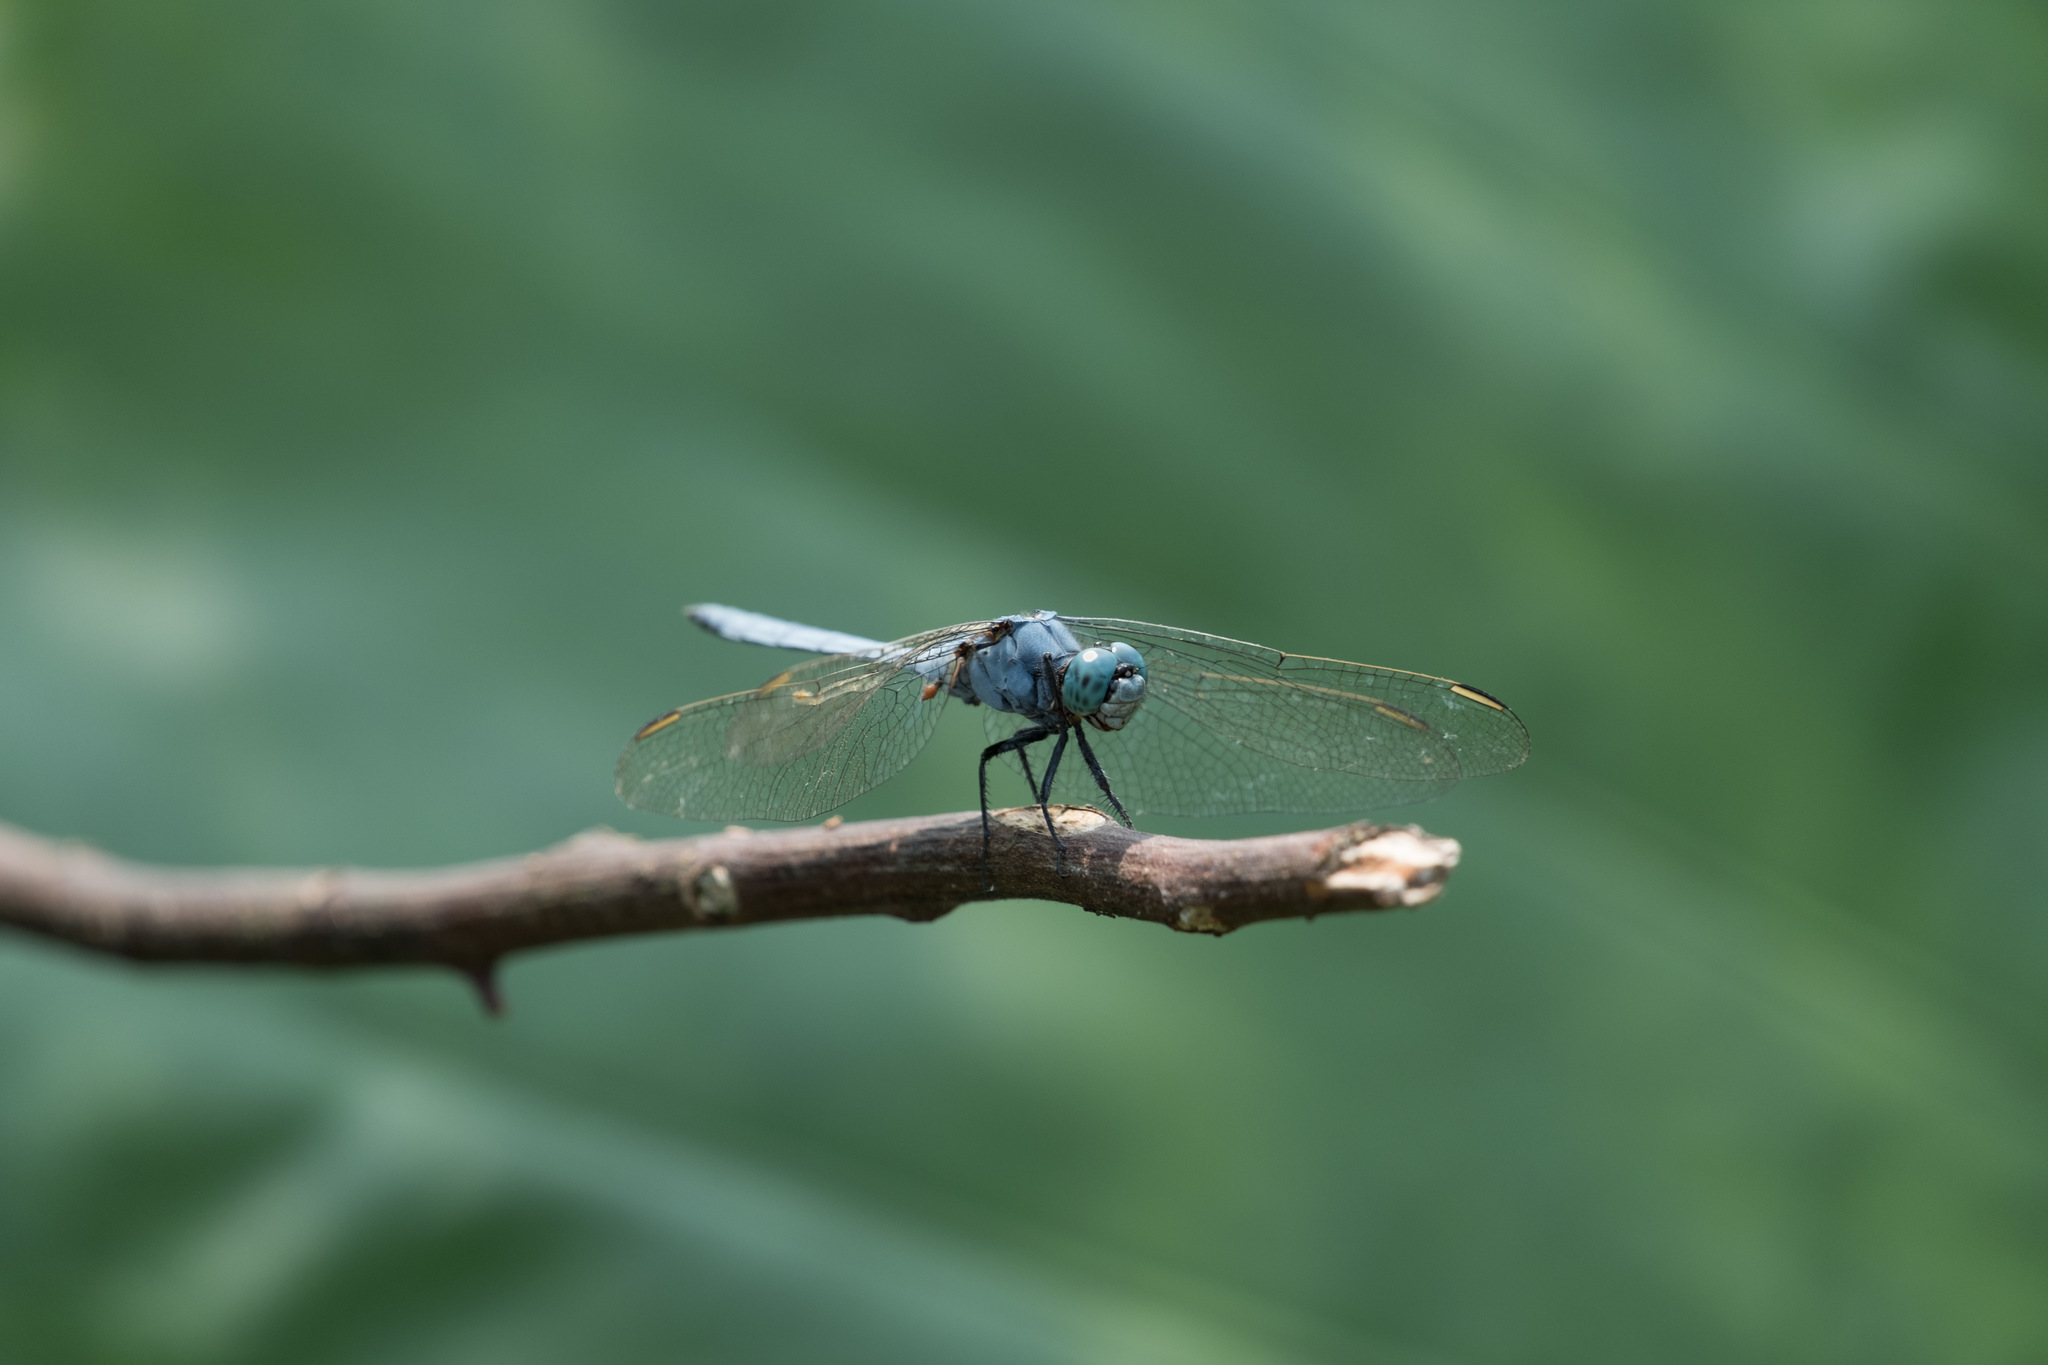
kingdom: Animalia
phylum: Arthropoda
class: Insecta
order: Odonata
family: Libellulidae
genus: Orthetrum
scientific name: Orthetrum luzonicum
